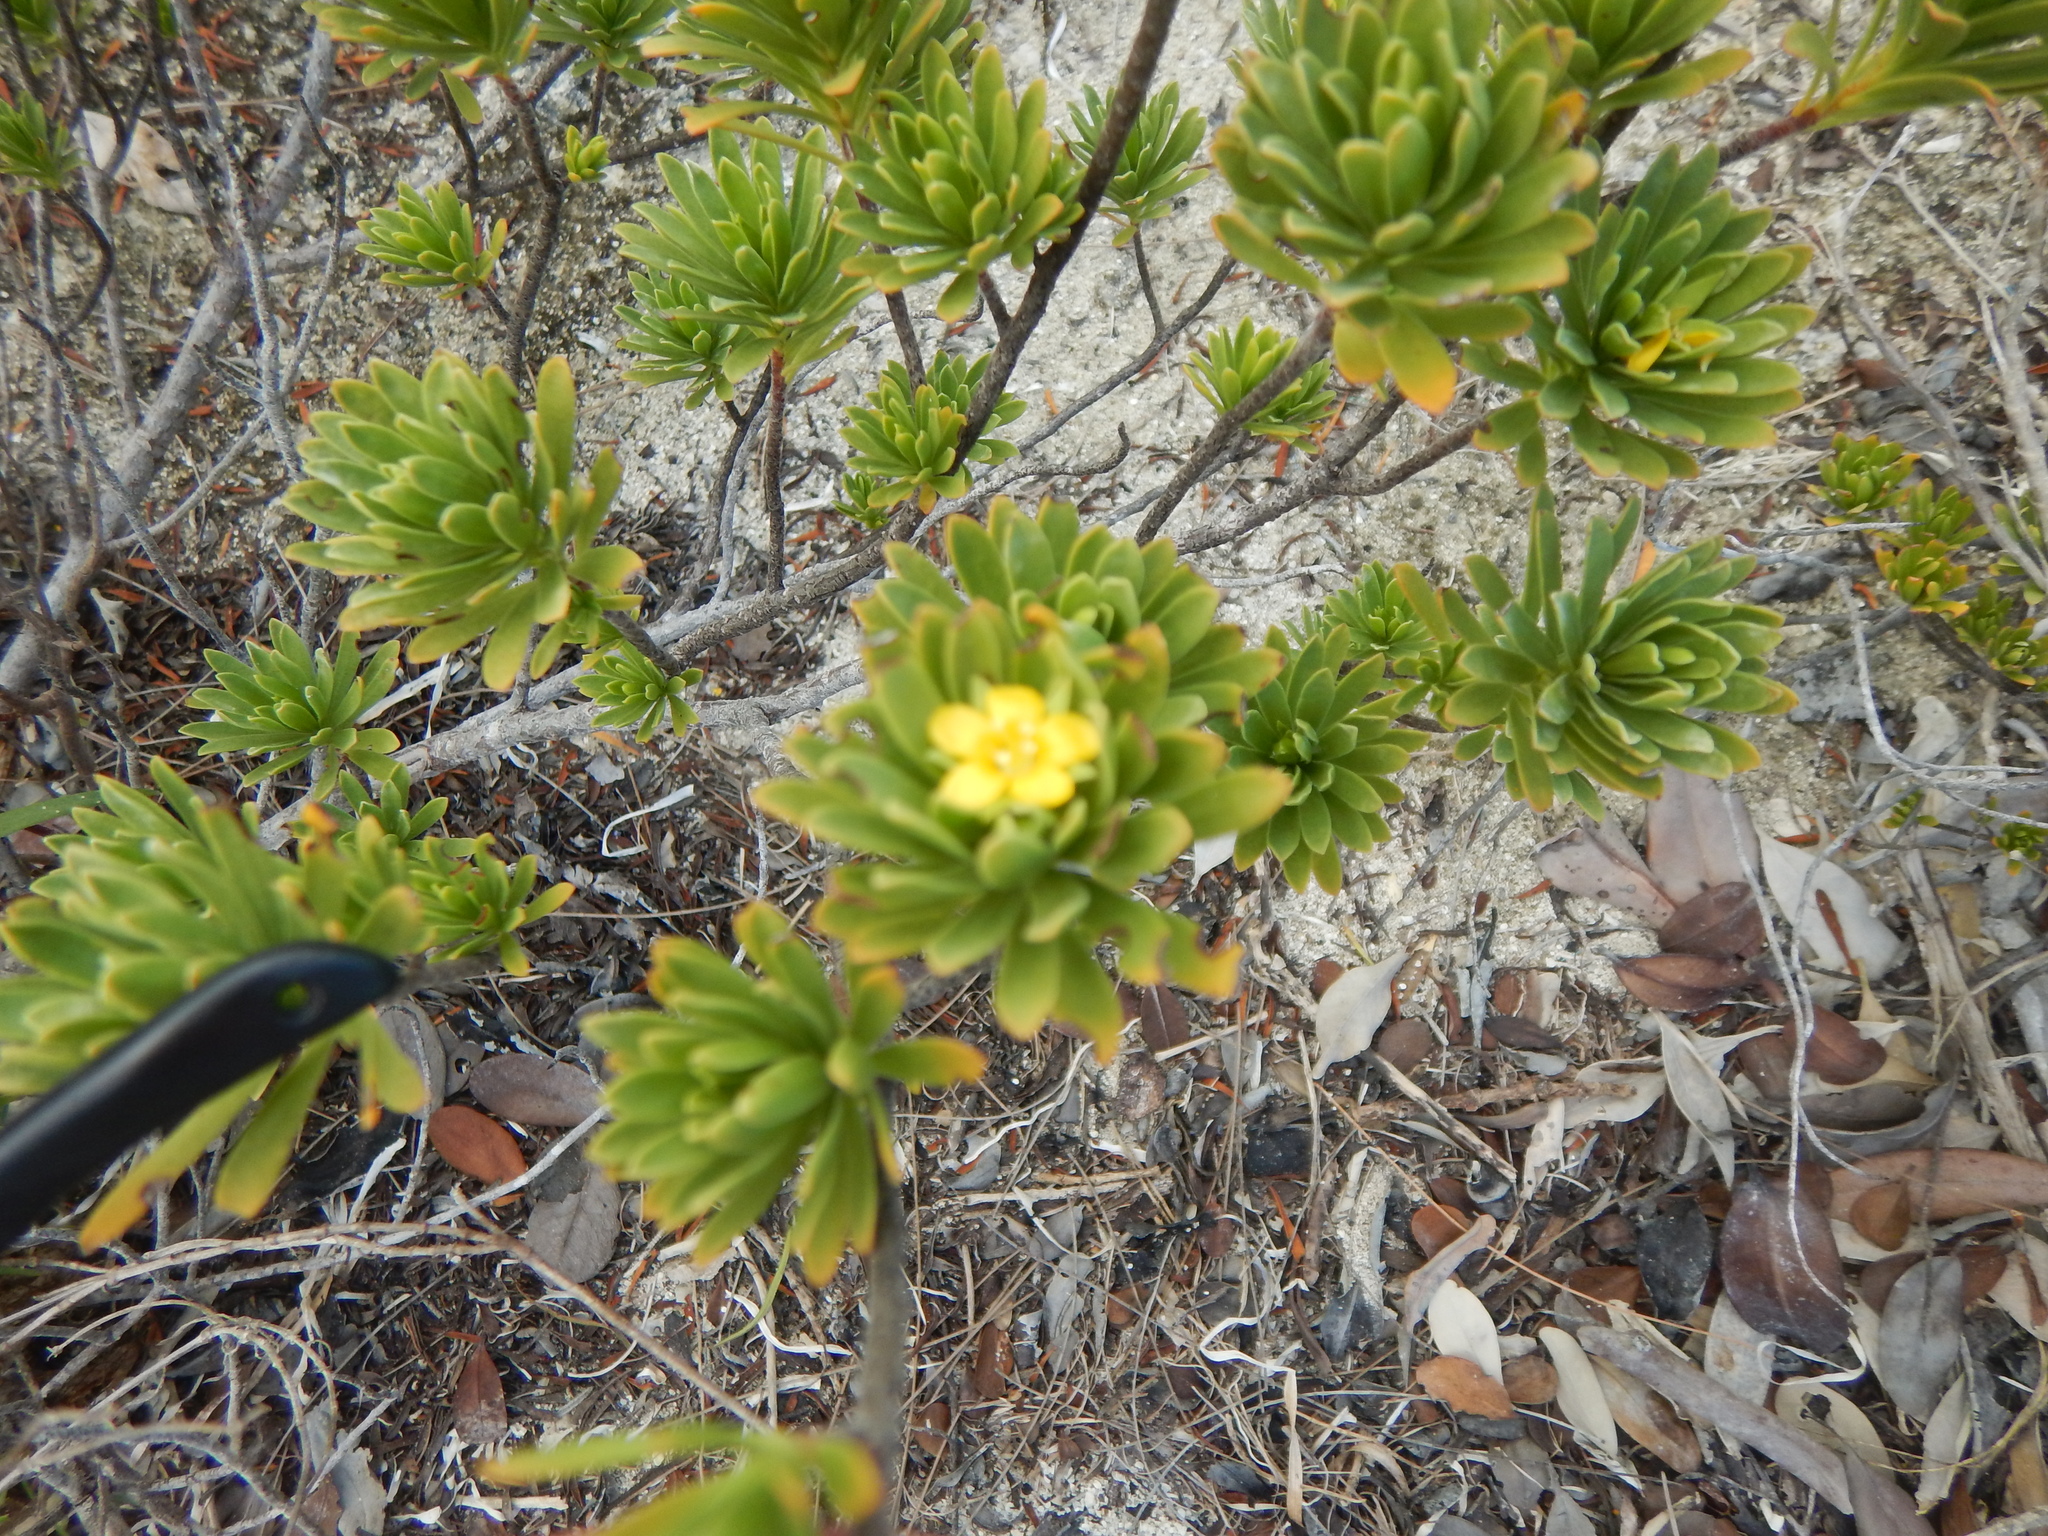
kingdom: Plantae
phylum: Tracheophyta
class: Magnoliopsida
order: Fabales
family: Surianaceae
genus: Suriana
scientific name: Suriana maritima
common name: Bay-cedar
